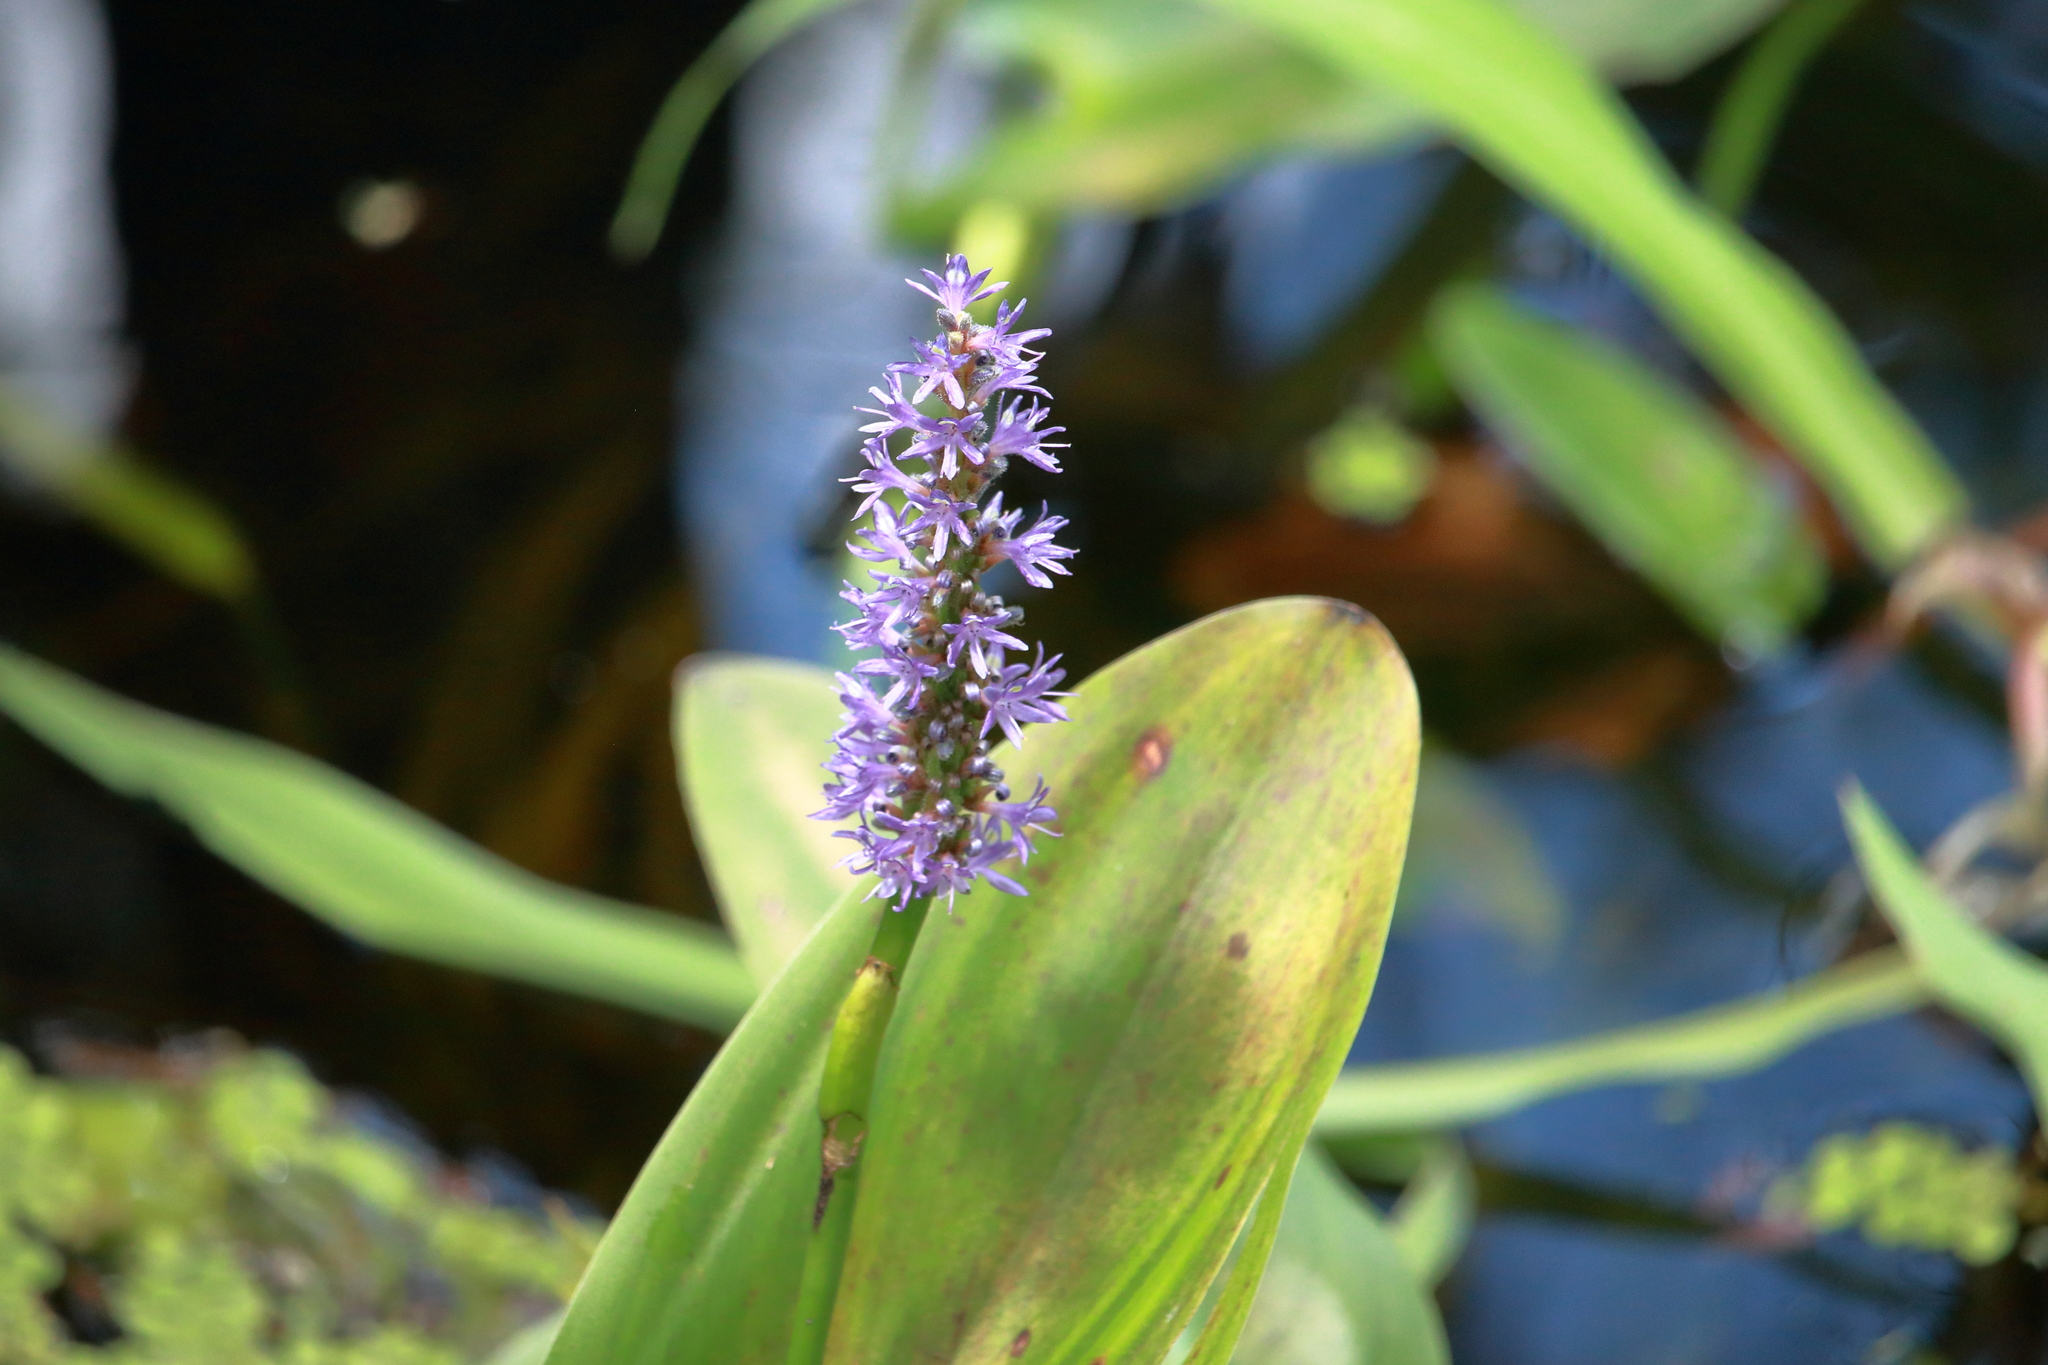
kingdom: Plantae
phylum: Tracheophyta
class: Liliopsida
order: Commelinales
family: Pontederiaceae
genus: Pontederia
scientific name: Pontederia cordata
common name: Pickerelweed
